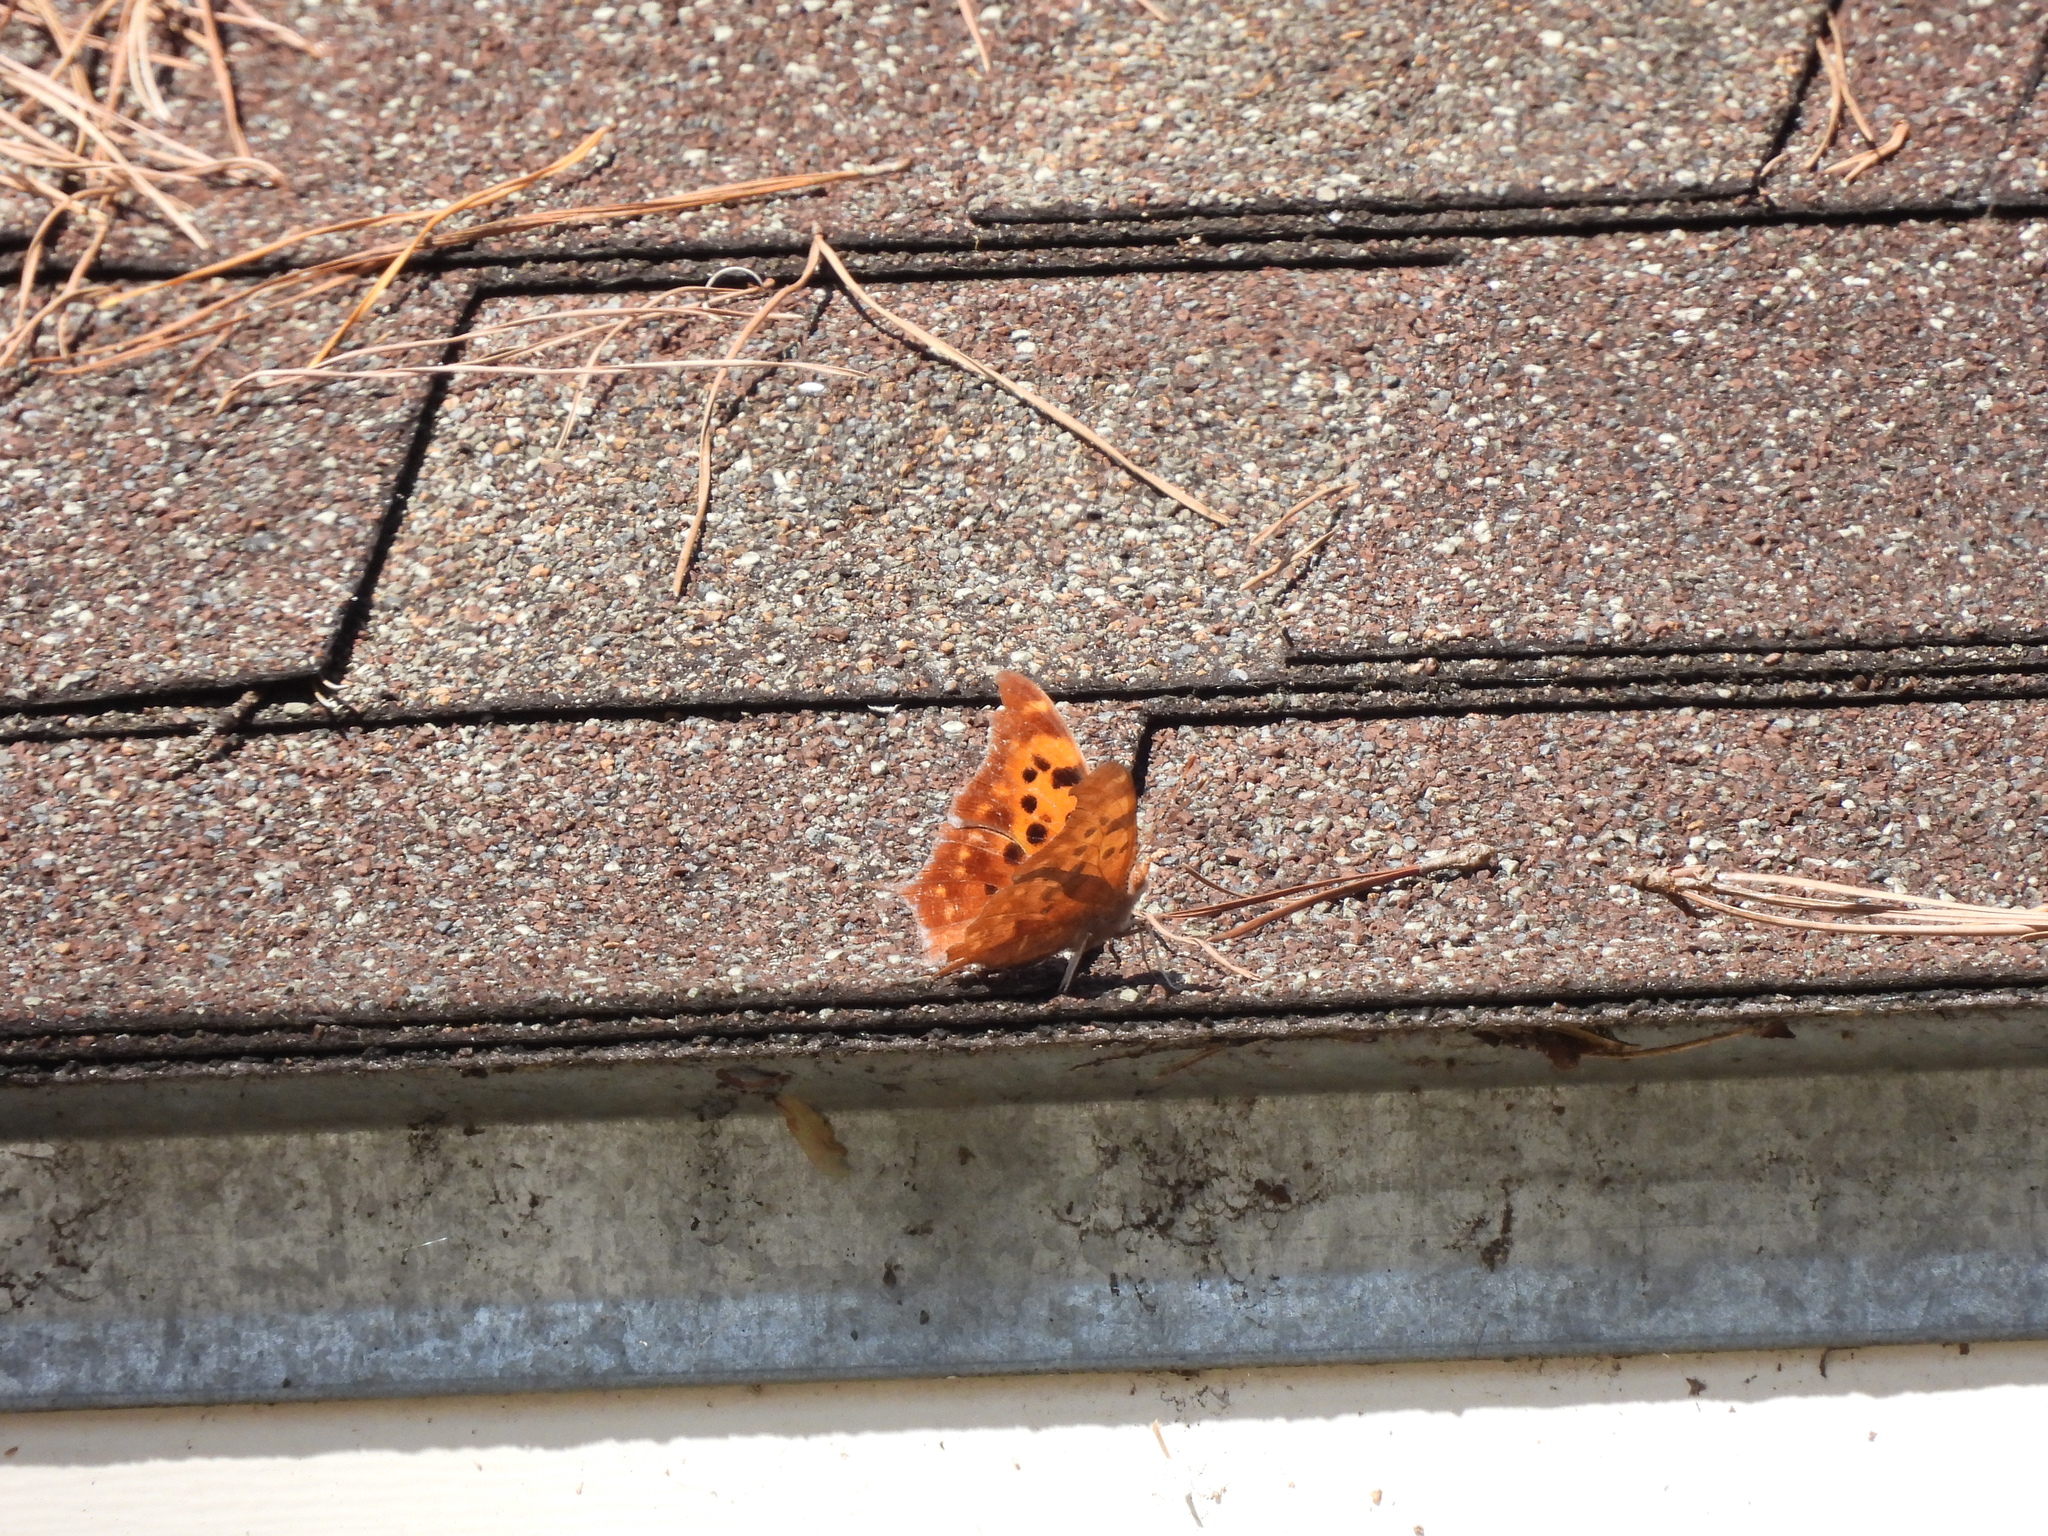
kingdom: Animalia
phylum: Arthropoda
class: Insecta
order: Lepidoptera
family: Nymphalidae
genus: Polygonia
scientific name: Polygonia interrogationis
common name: Question mark
